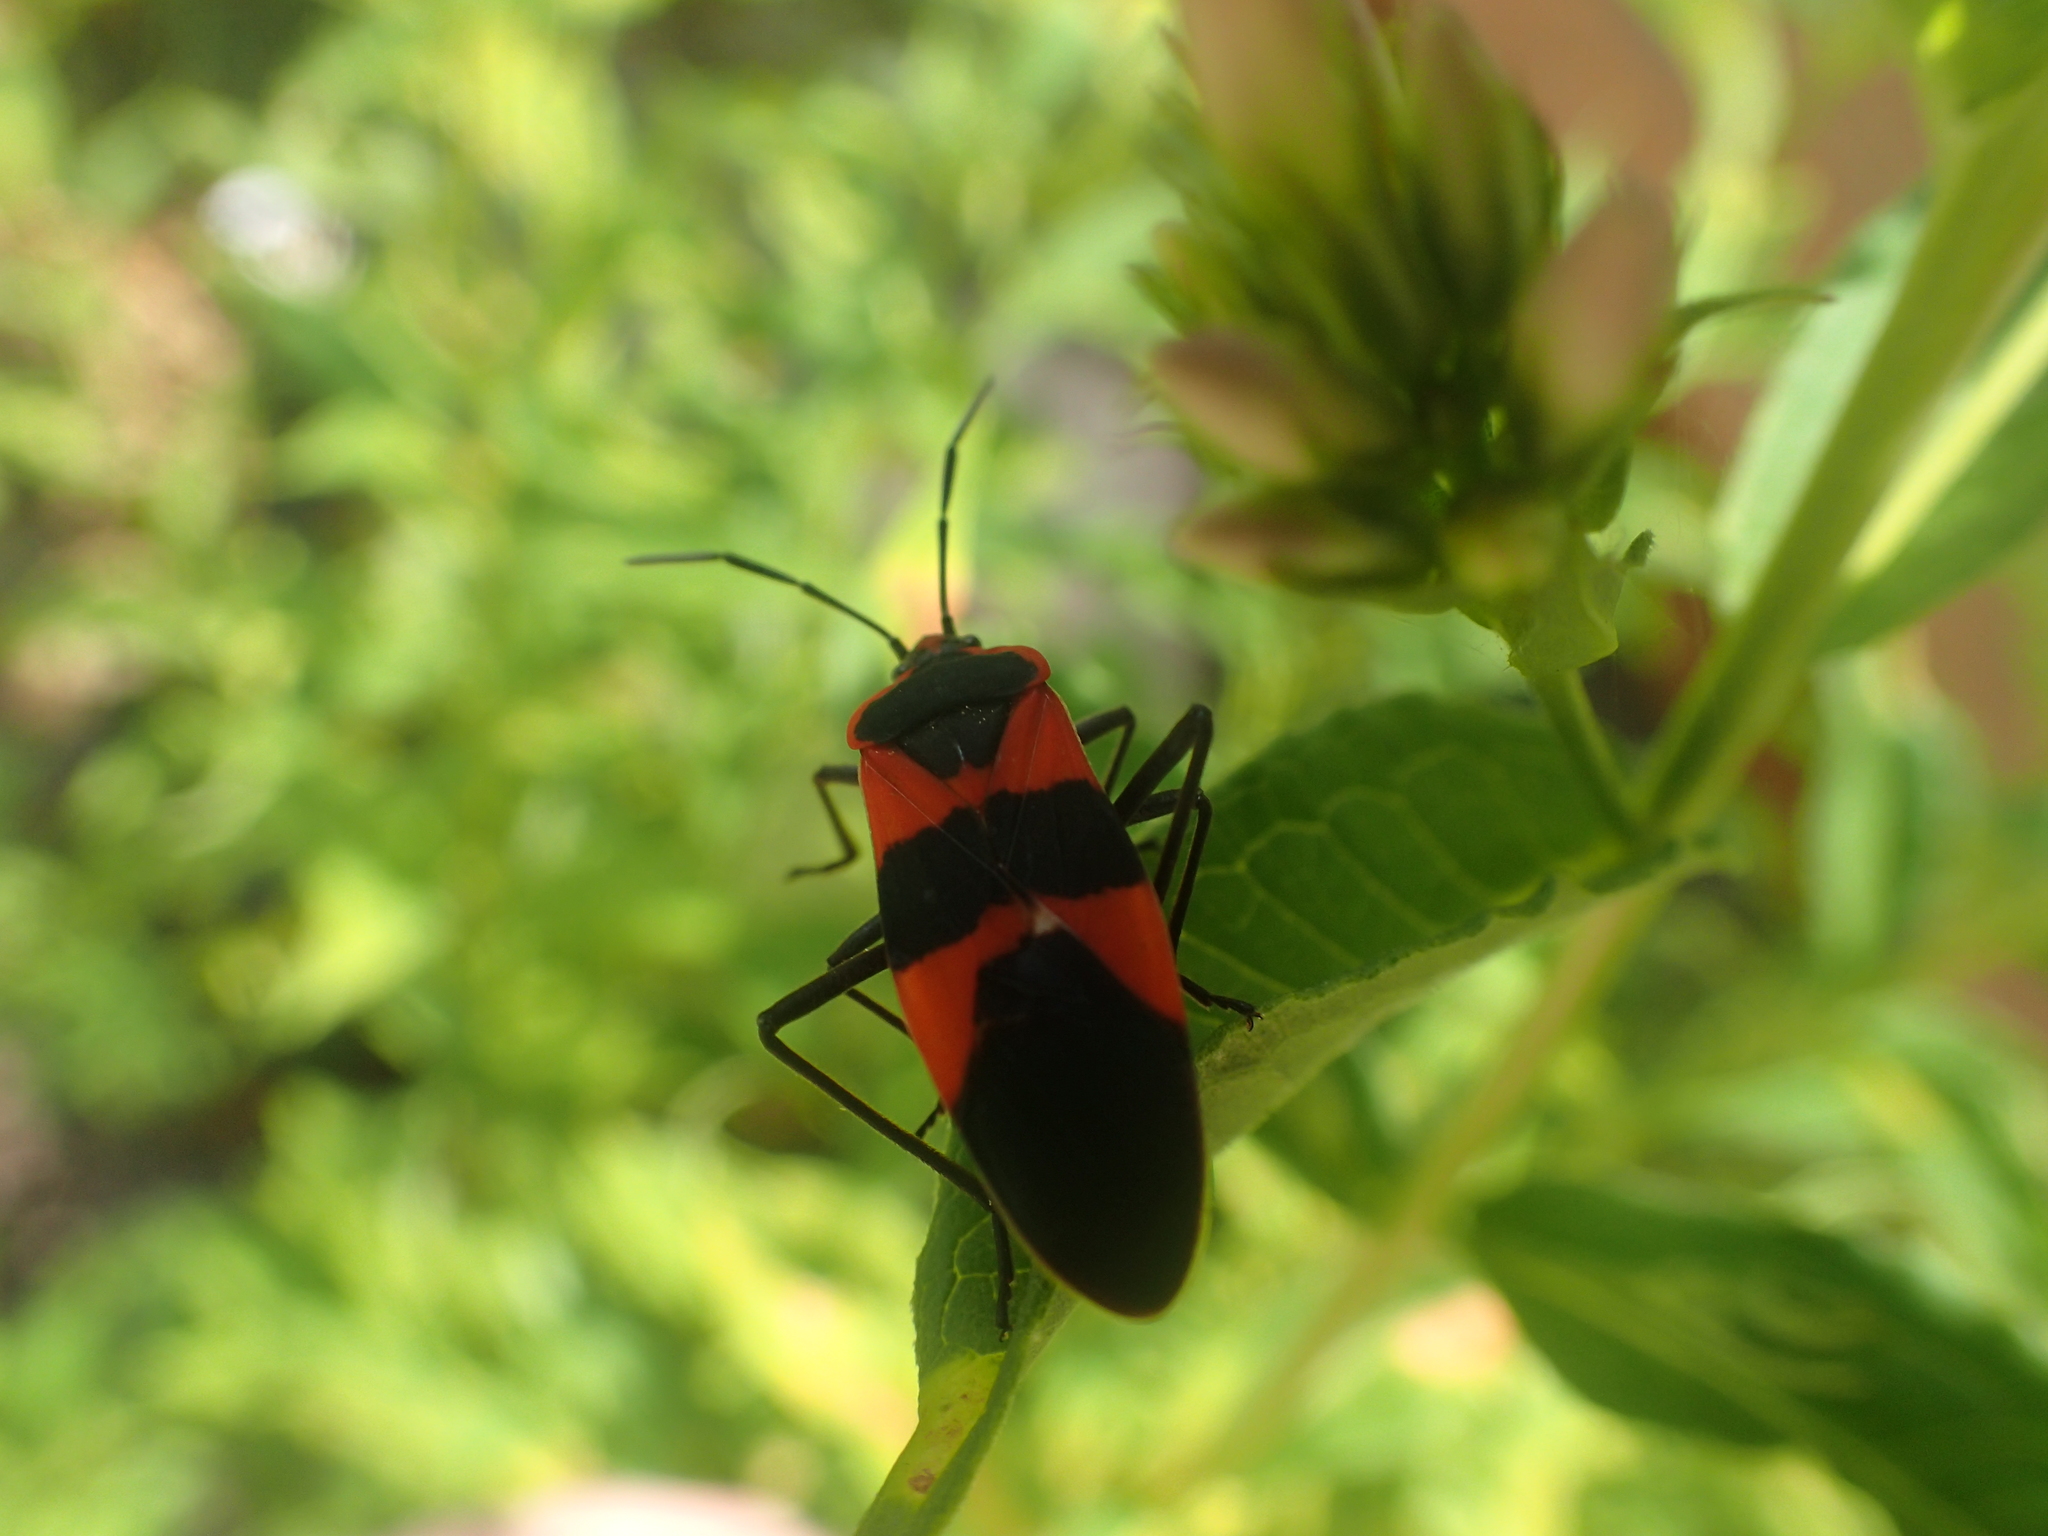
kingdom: Animalia
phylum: Arthropoda
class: Insecta
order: Hemiptera
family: Lygaeidae
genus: Oncopeltus
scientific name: Oncopeltus fasciatus
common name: Large milkweed bug
